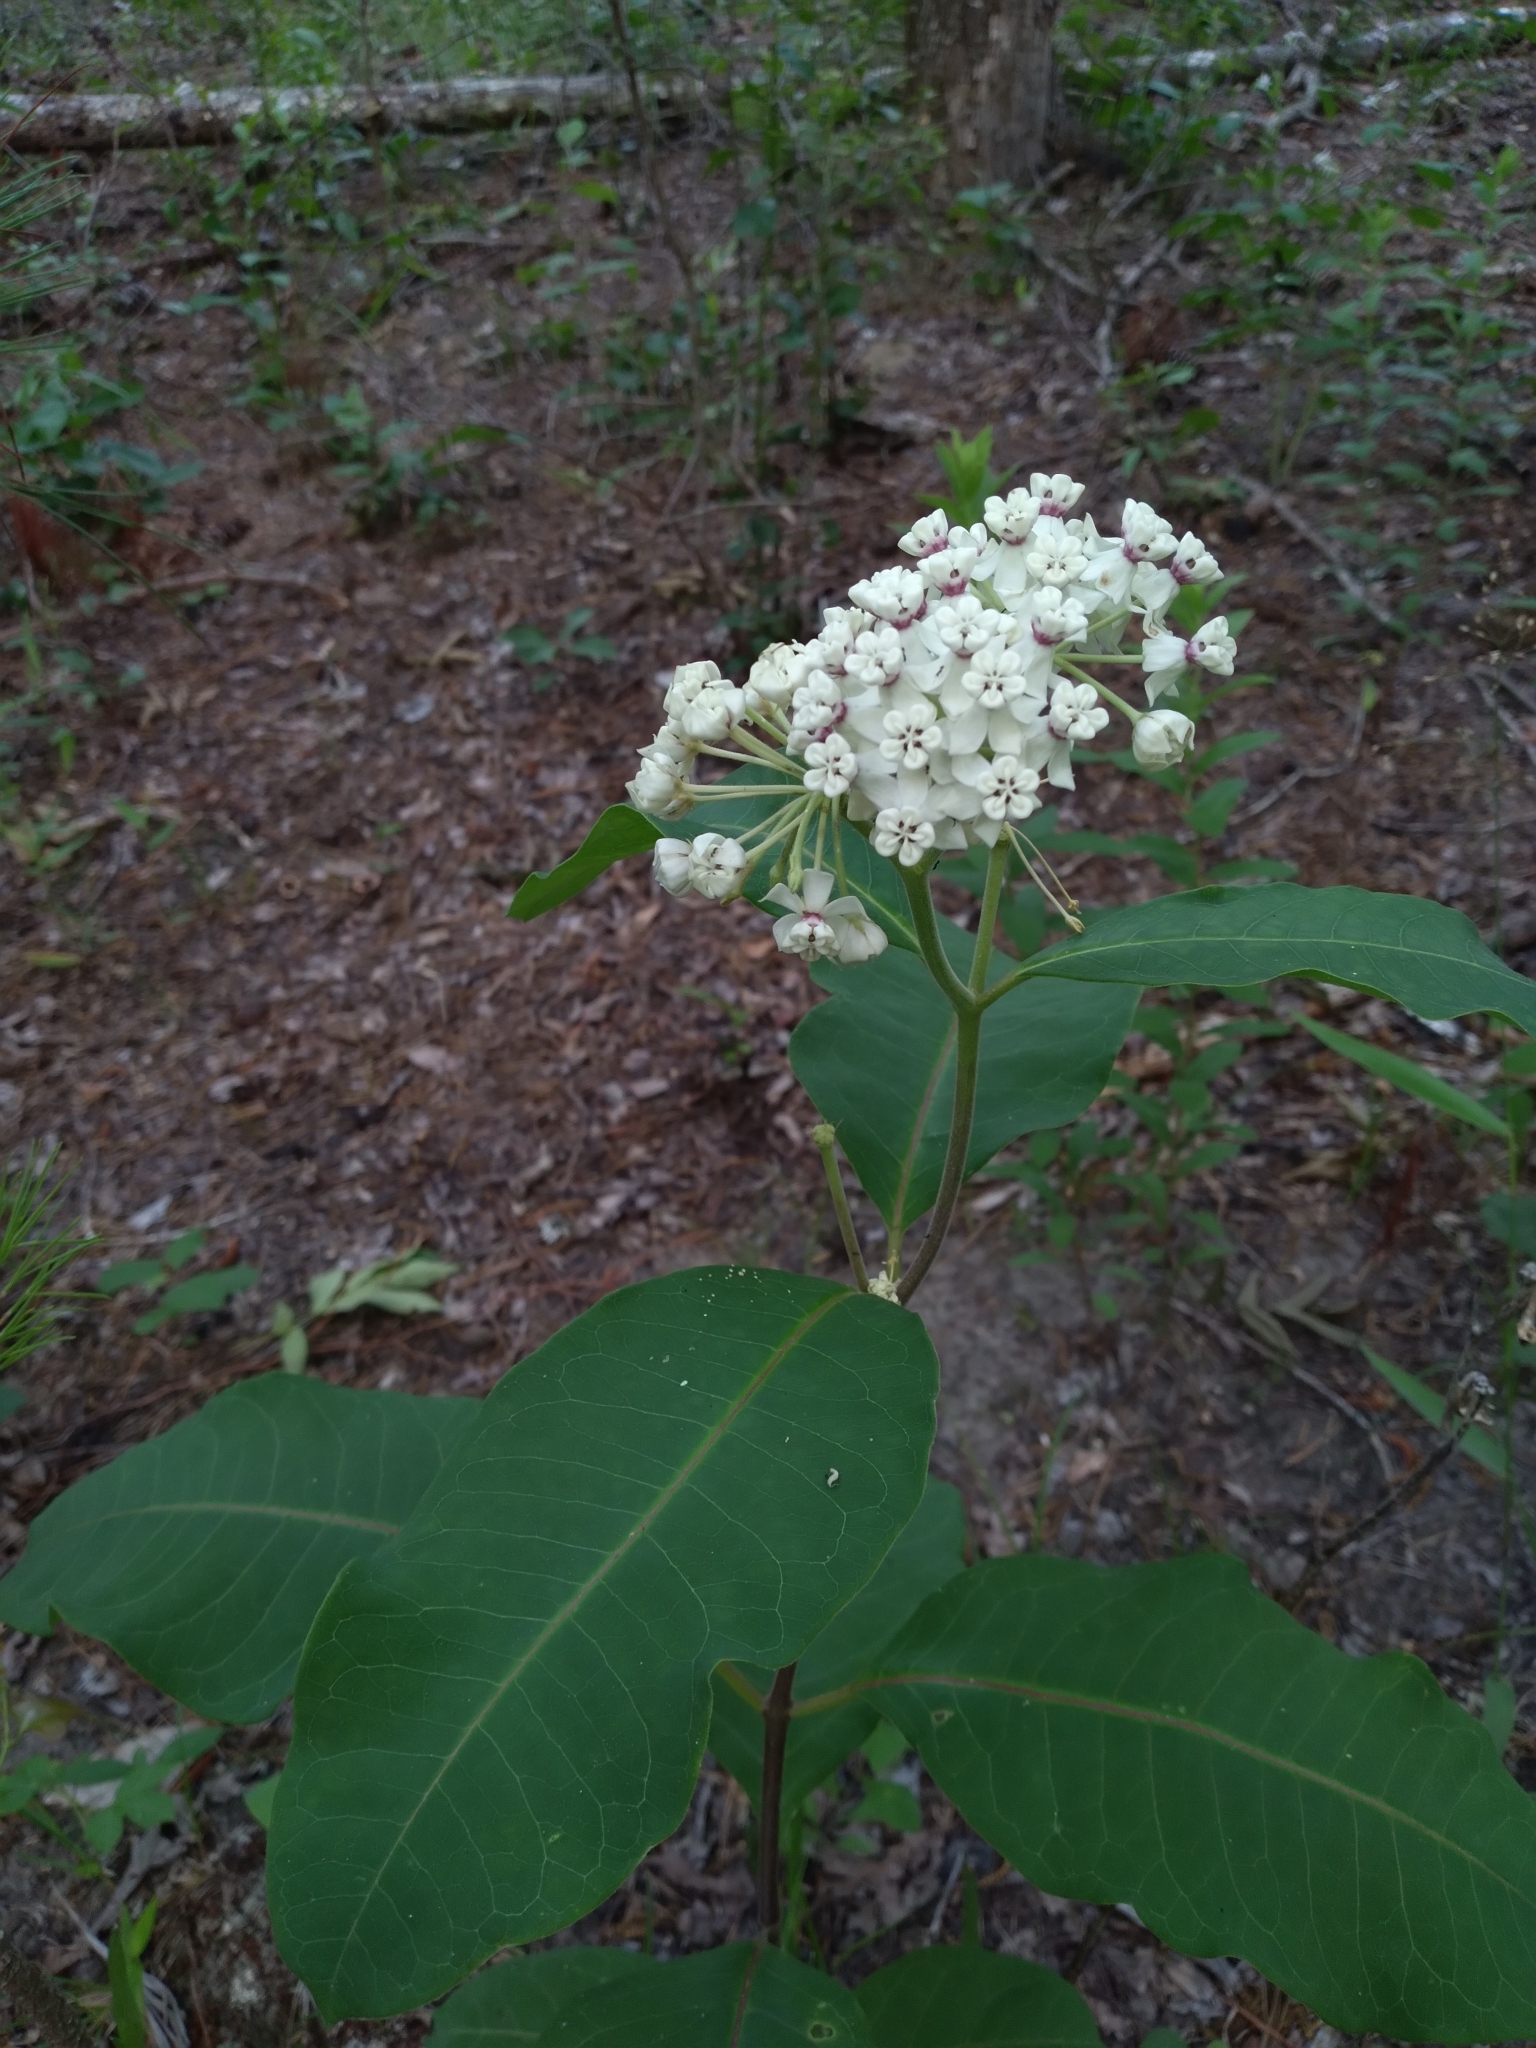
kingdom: Plantae
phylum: Tracheophyta
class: Magnoliopsida
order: Gentianales
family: Apocynaceae
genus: Asclepias
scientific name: Asclepias variegata
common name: Variegated milkweed
